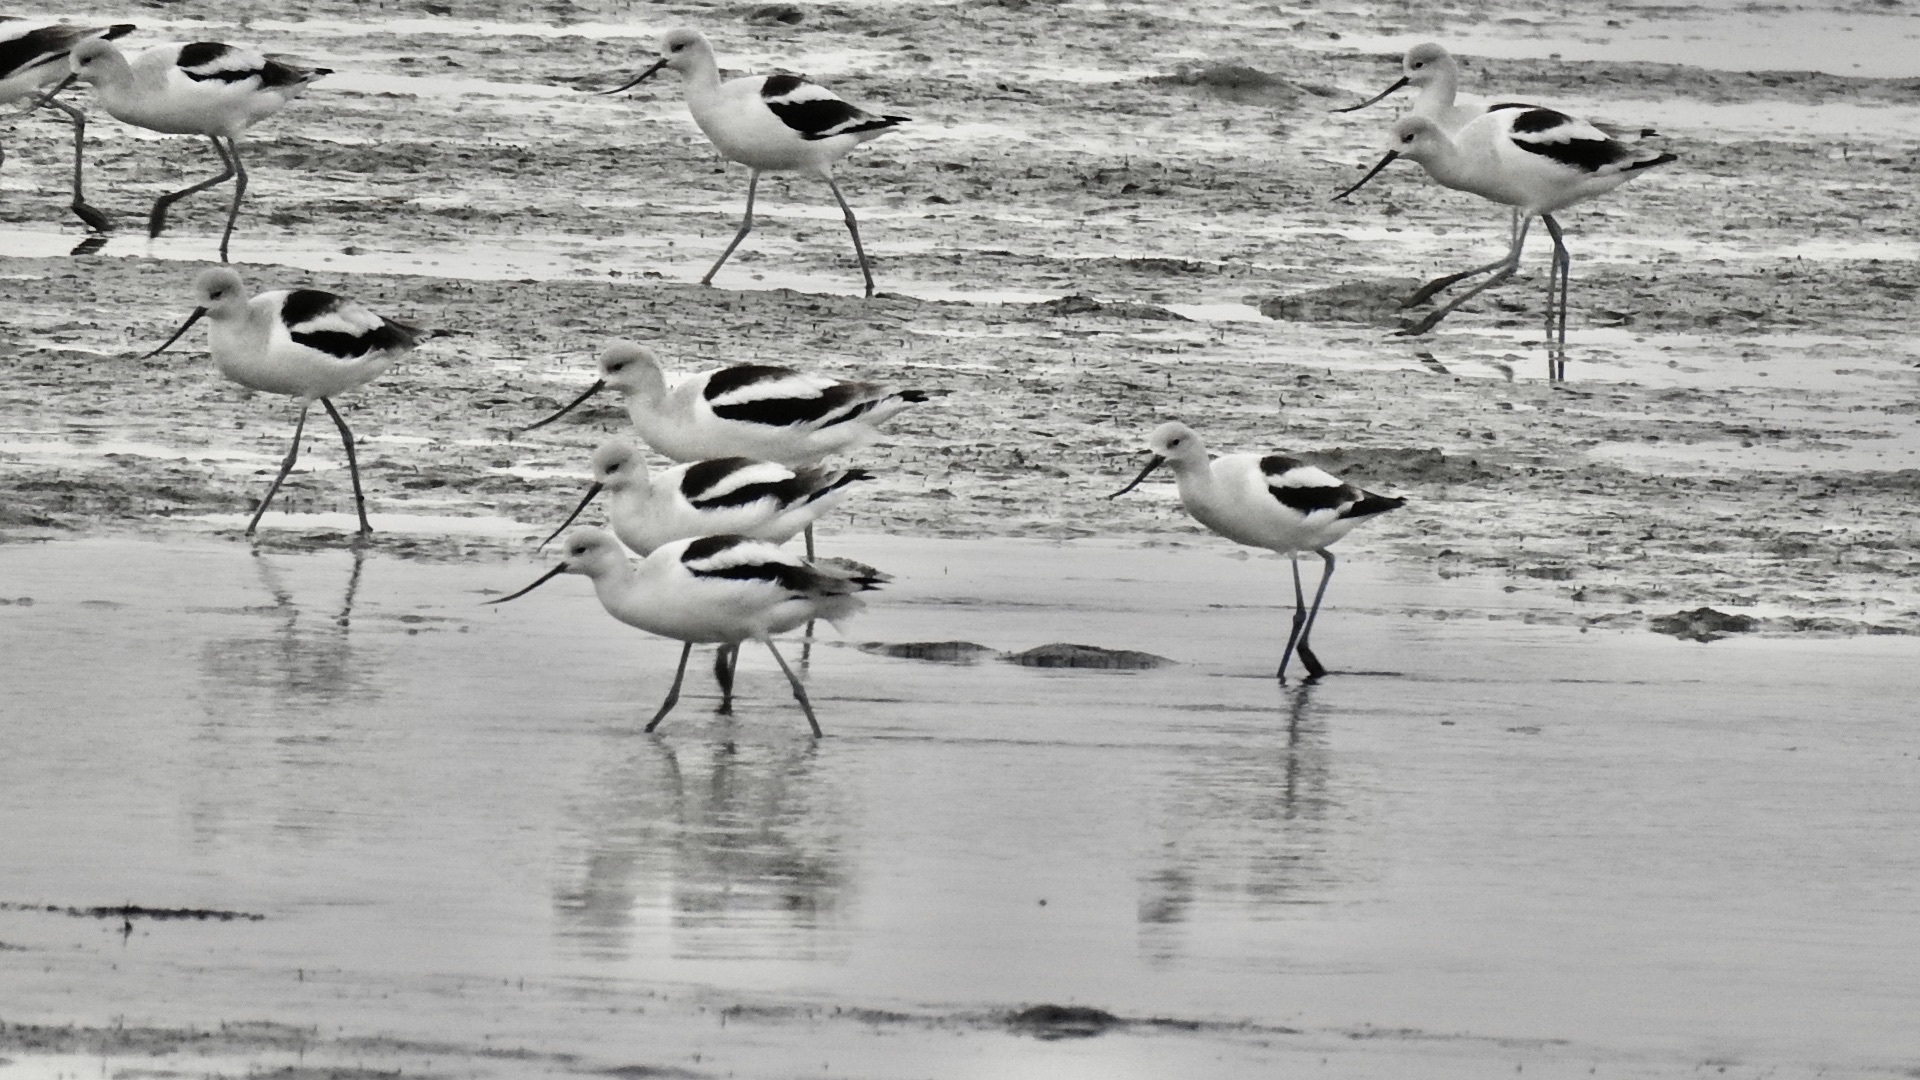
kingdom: Animalia
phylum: Chordata
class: Aves
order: Charadriiformes
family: Recurvirostridae
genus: Recurvirostra
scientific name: Recurvirostra americana
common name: American avocet
